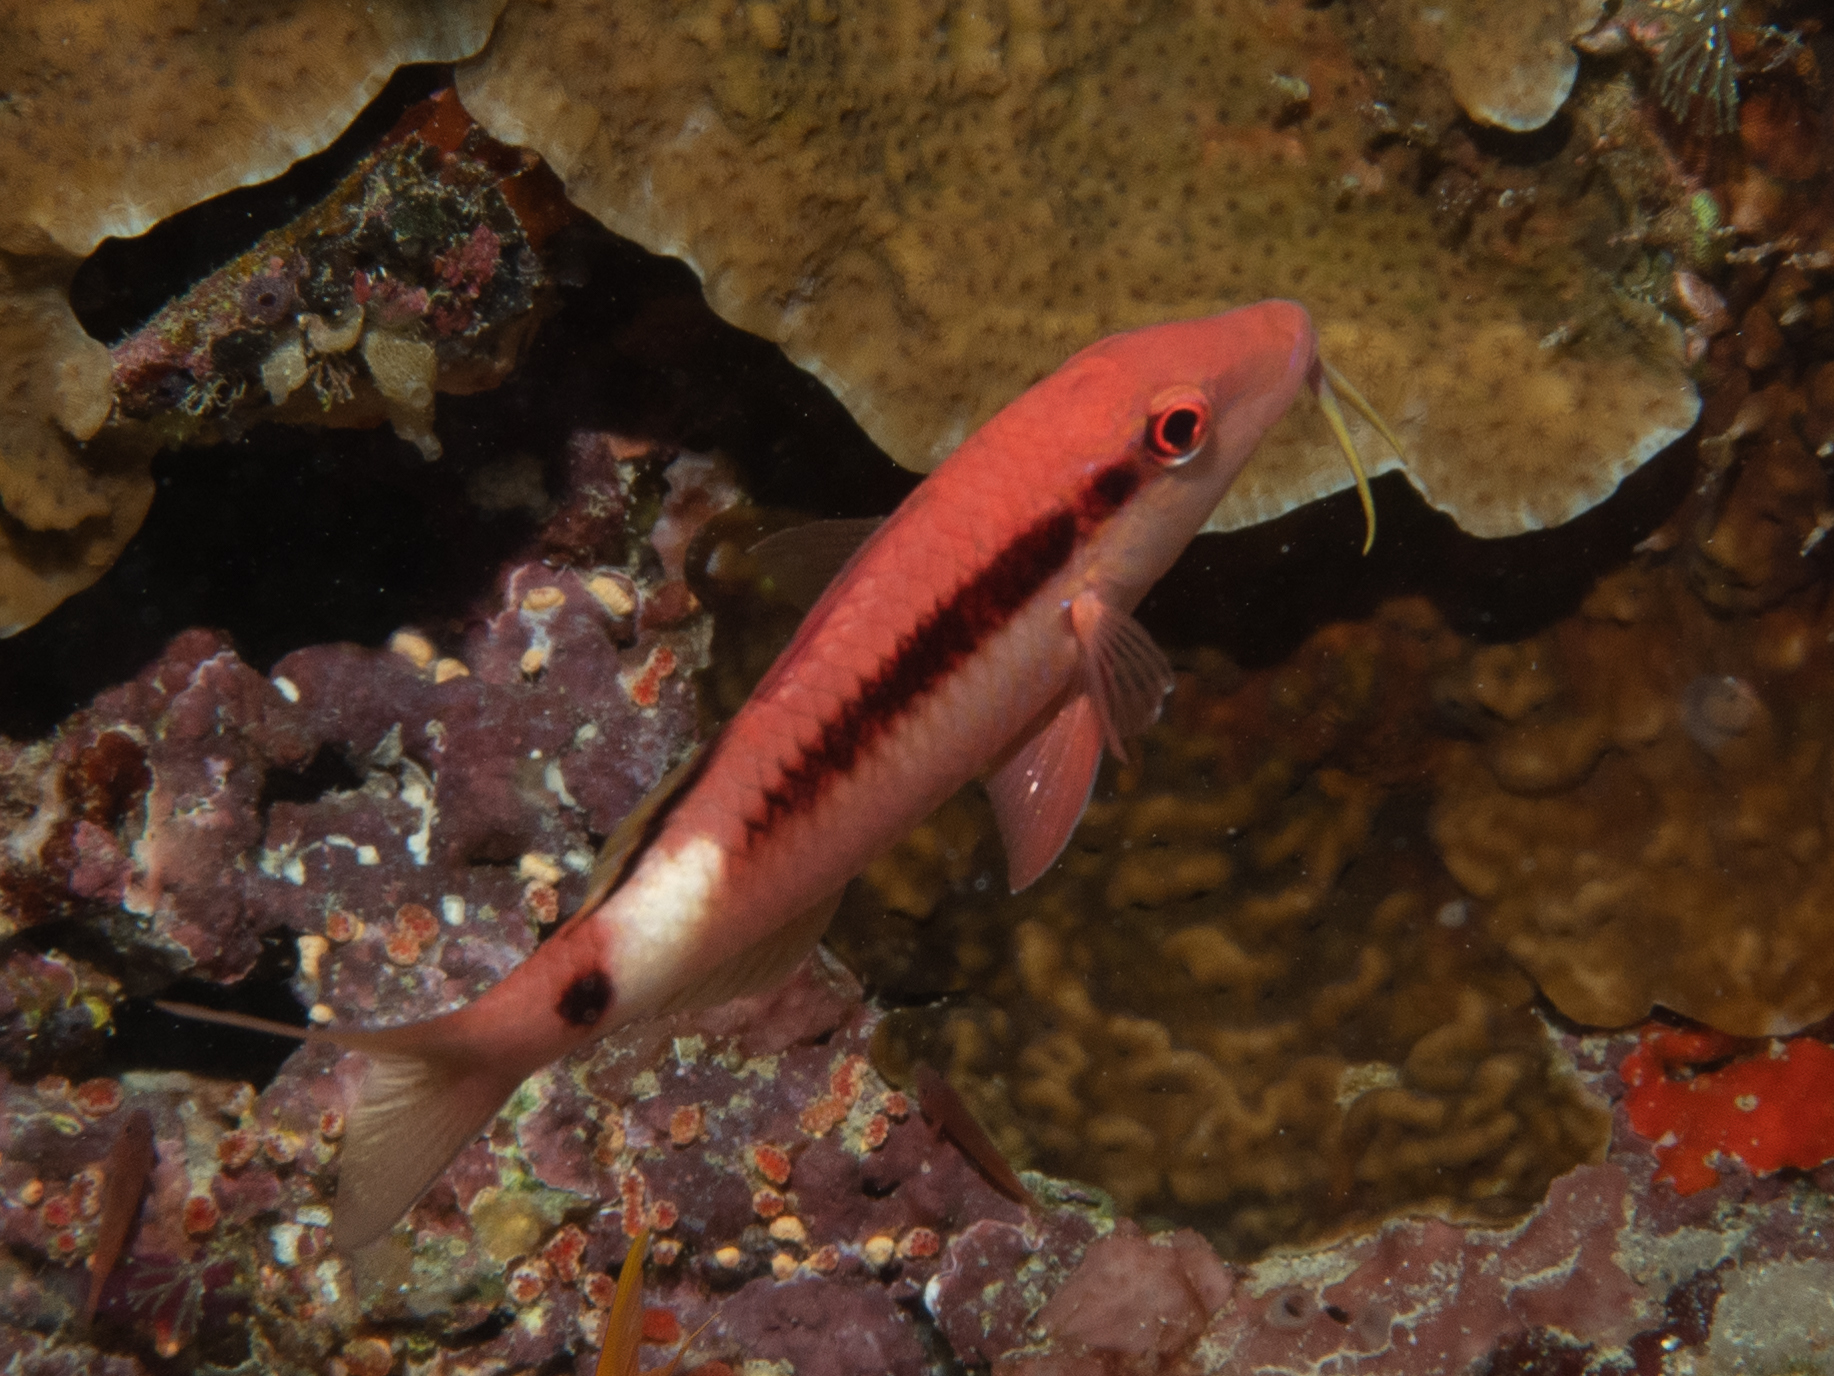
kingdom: Animalia
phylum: Chordata
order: Perciformes
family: Mullidae
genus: Parupeneus
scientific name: Parupeneus macronemus
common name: Long-barbel goatfish
